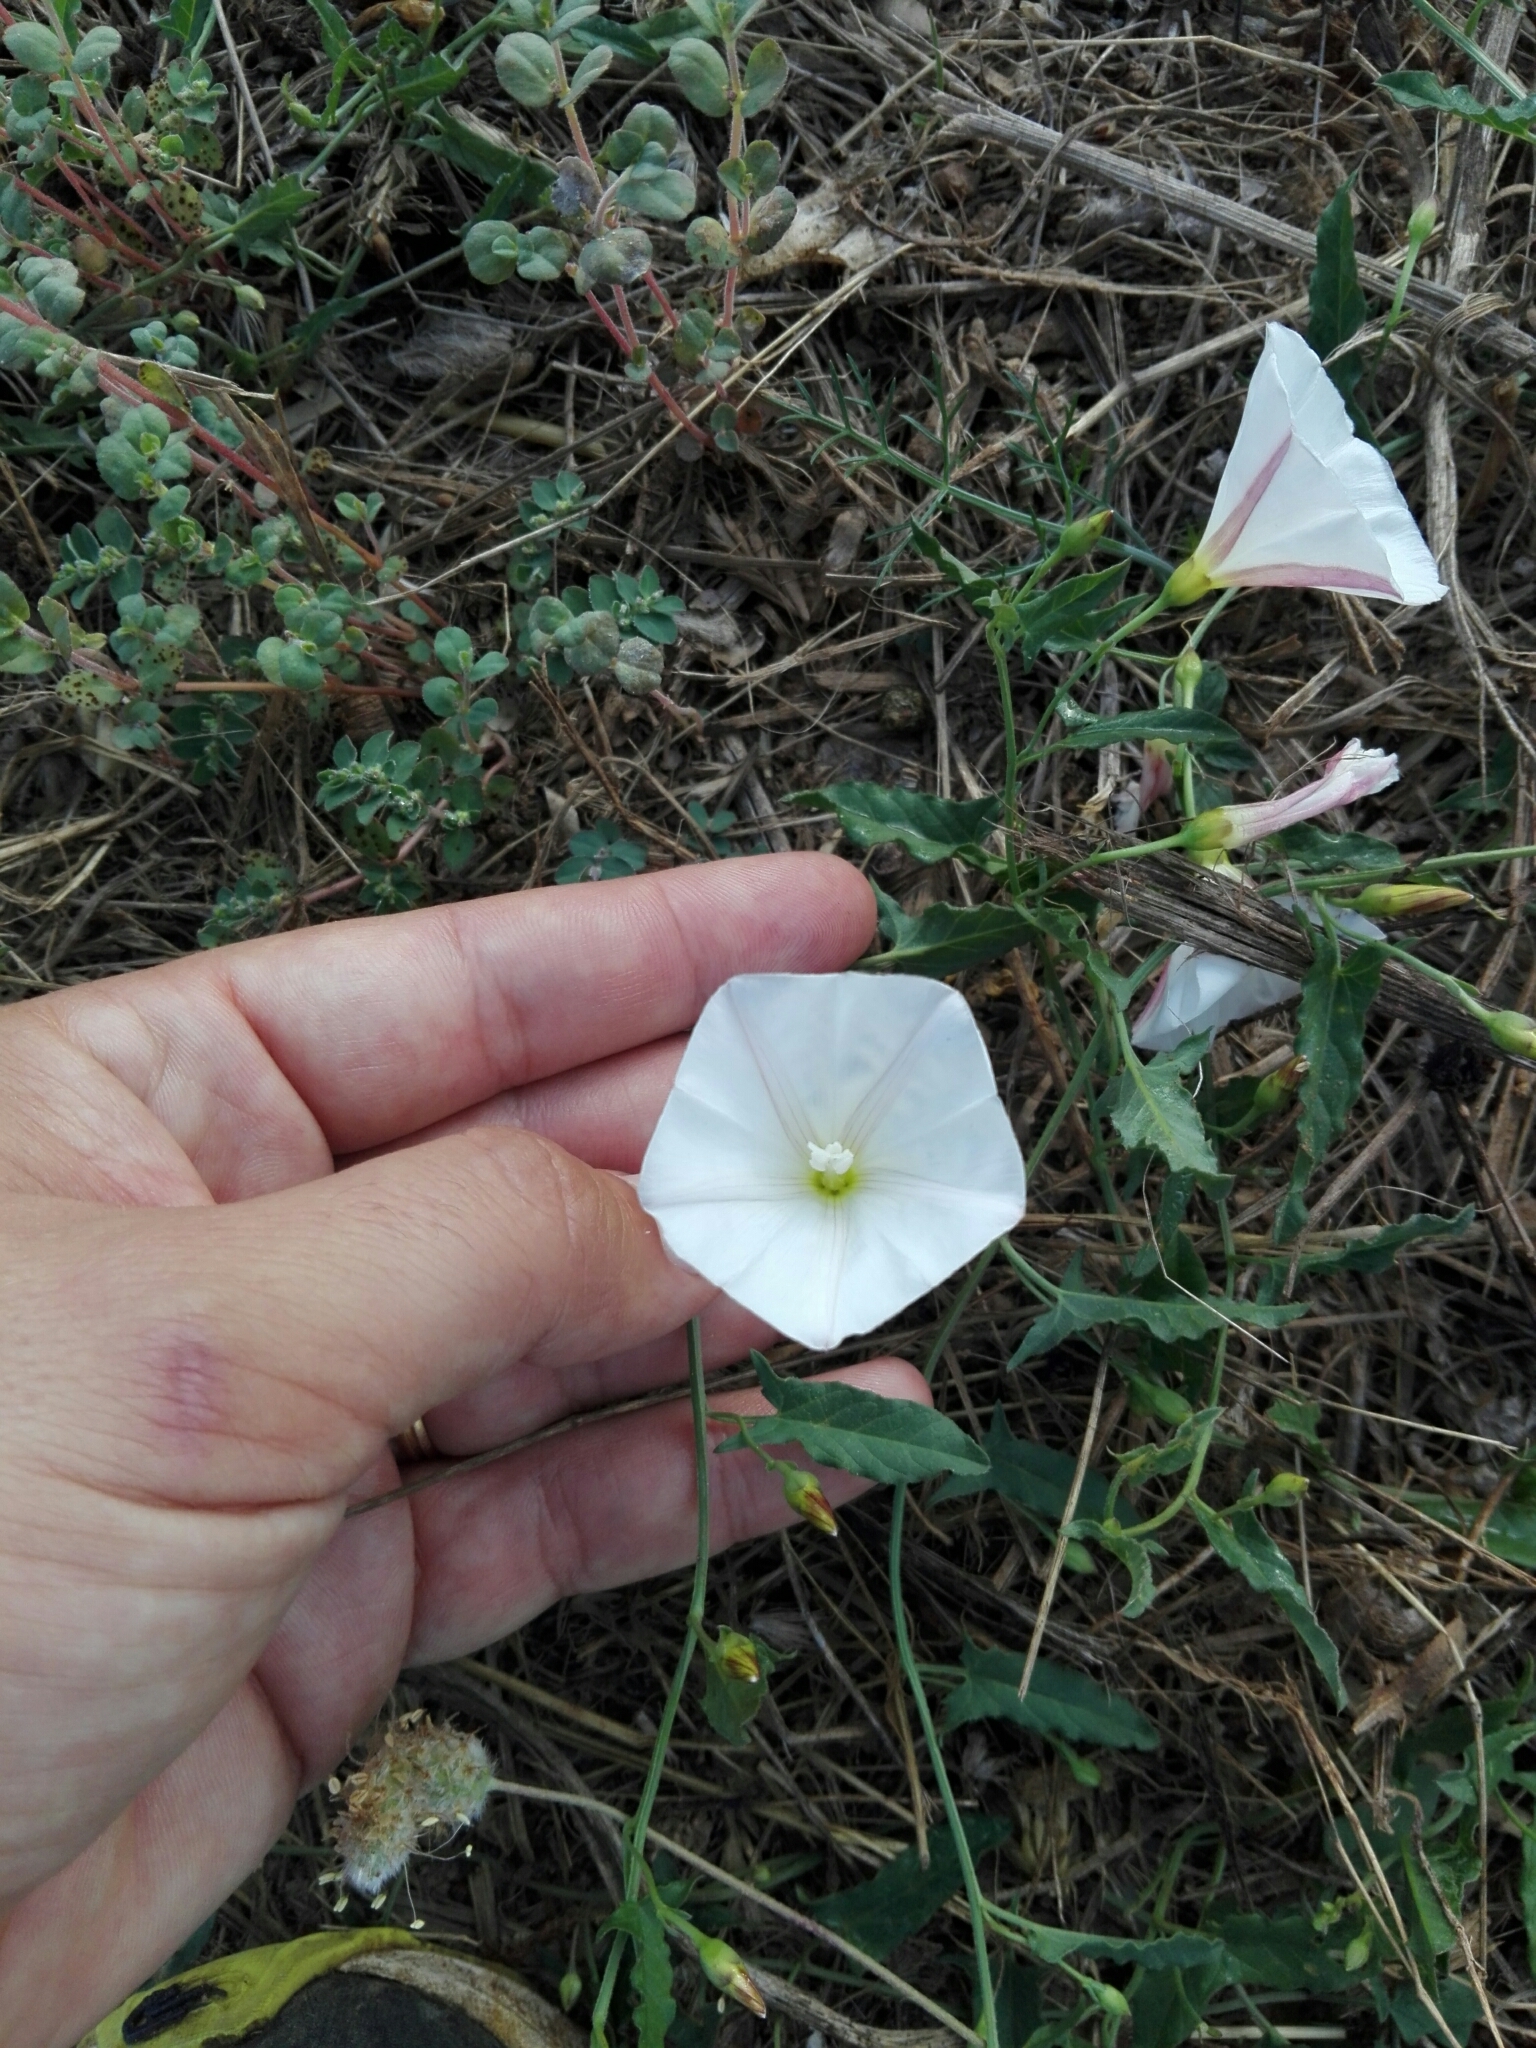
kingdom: Plantae
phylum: Tracheophyta
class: Magnoliopsida
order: Solanales
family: Convolvulaceae
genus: Convolvulus
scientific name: Convolvulus arvensis
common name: Field bindweed
